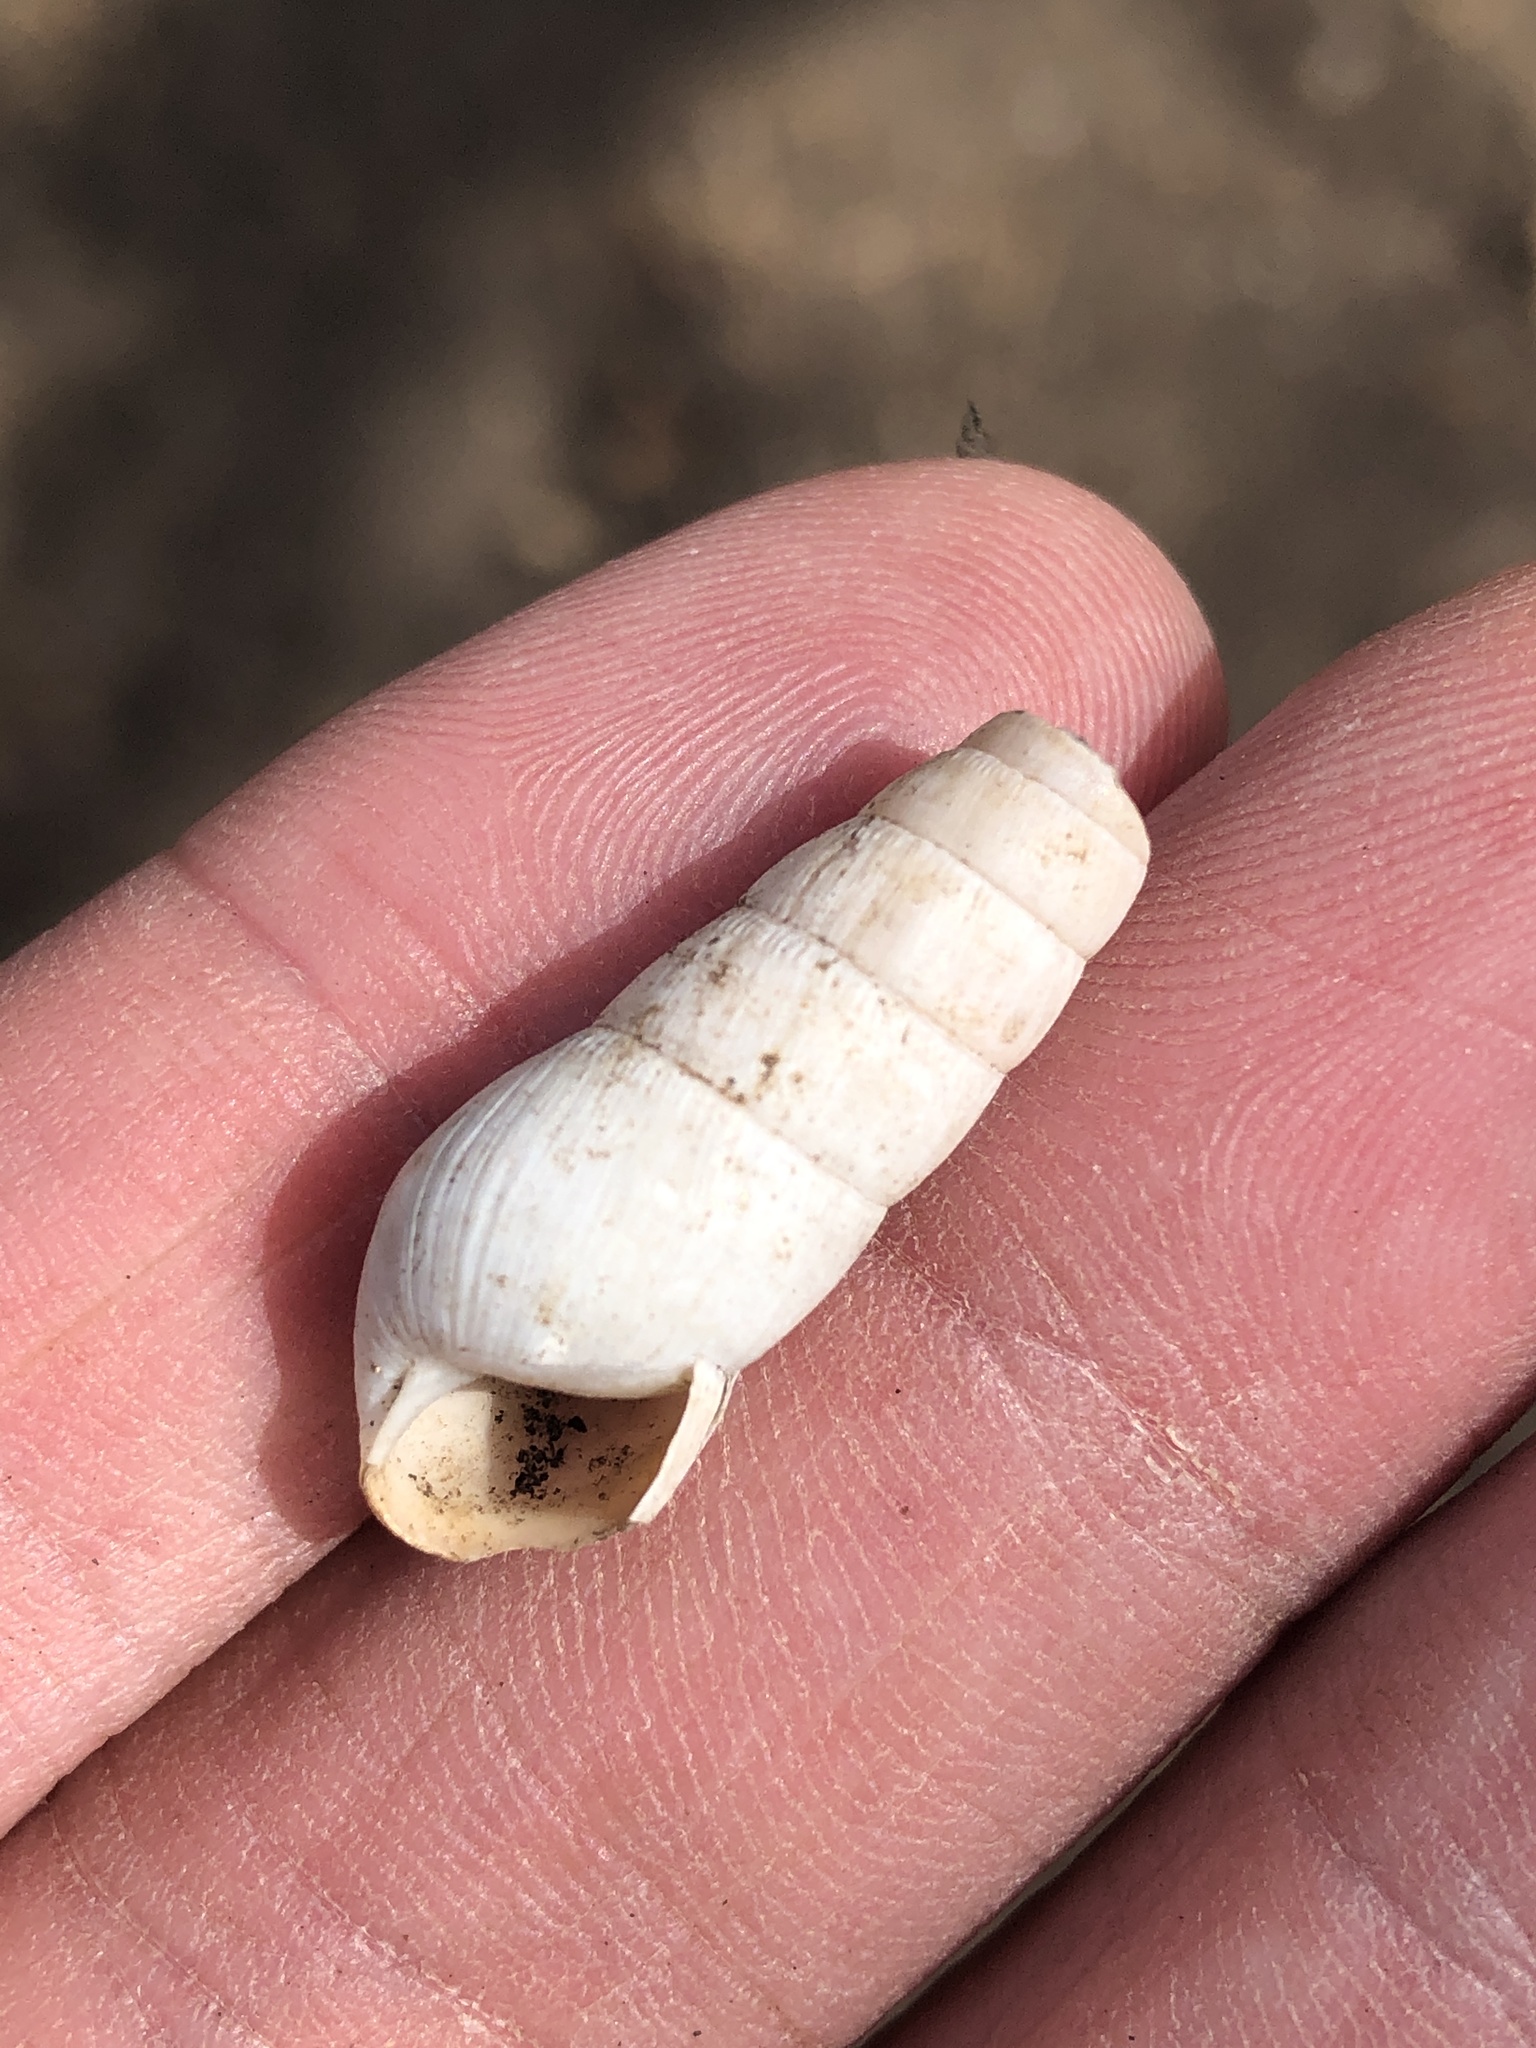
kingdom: Animalia
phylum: Mollusca
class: Gastropoda
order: Stylommatophora
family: Achatinidae
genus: Rumina
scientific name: Rumina decollata
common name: Decollate snail
